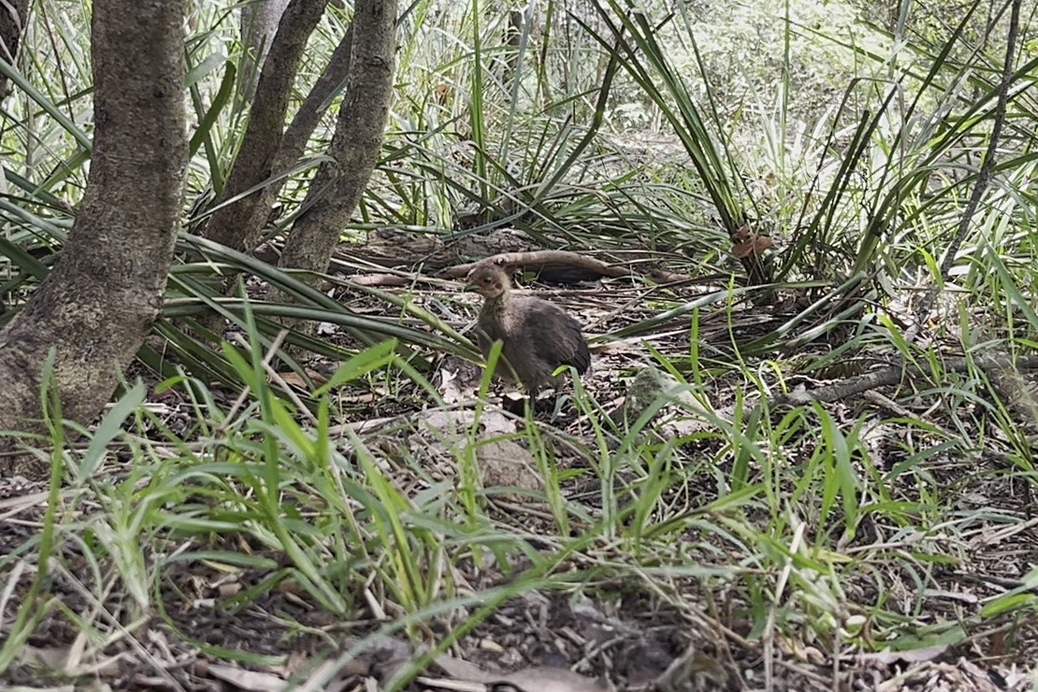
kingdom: Animalia
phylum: Chordata
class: Aves
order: Galliformes
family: Megapodiidae
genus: Alectura
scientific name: Alectura lathami
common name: Australian brushturkey
